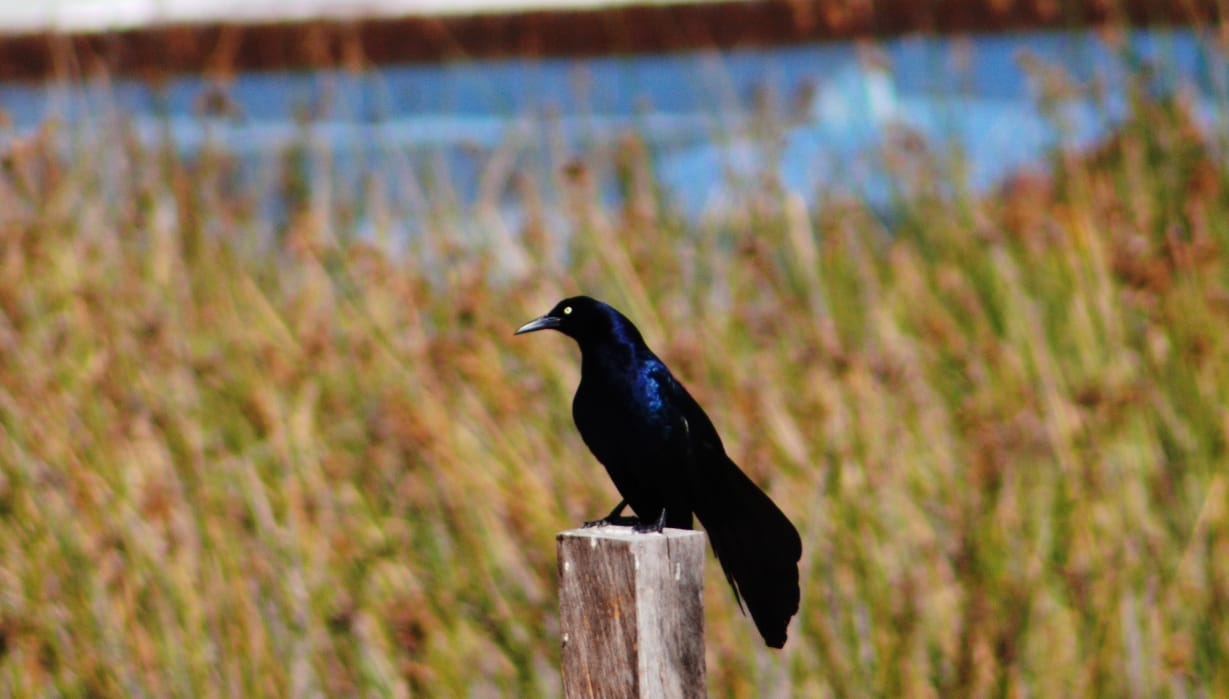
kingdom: Animalia
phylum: Chordata
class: Aves
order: Passeriformes
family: Icteridae
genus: Quiscalus
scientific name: Quiscalus mexicanus
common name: Great-tailed grackle
